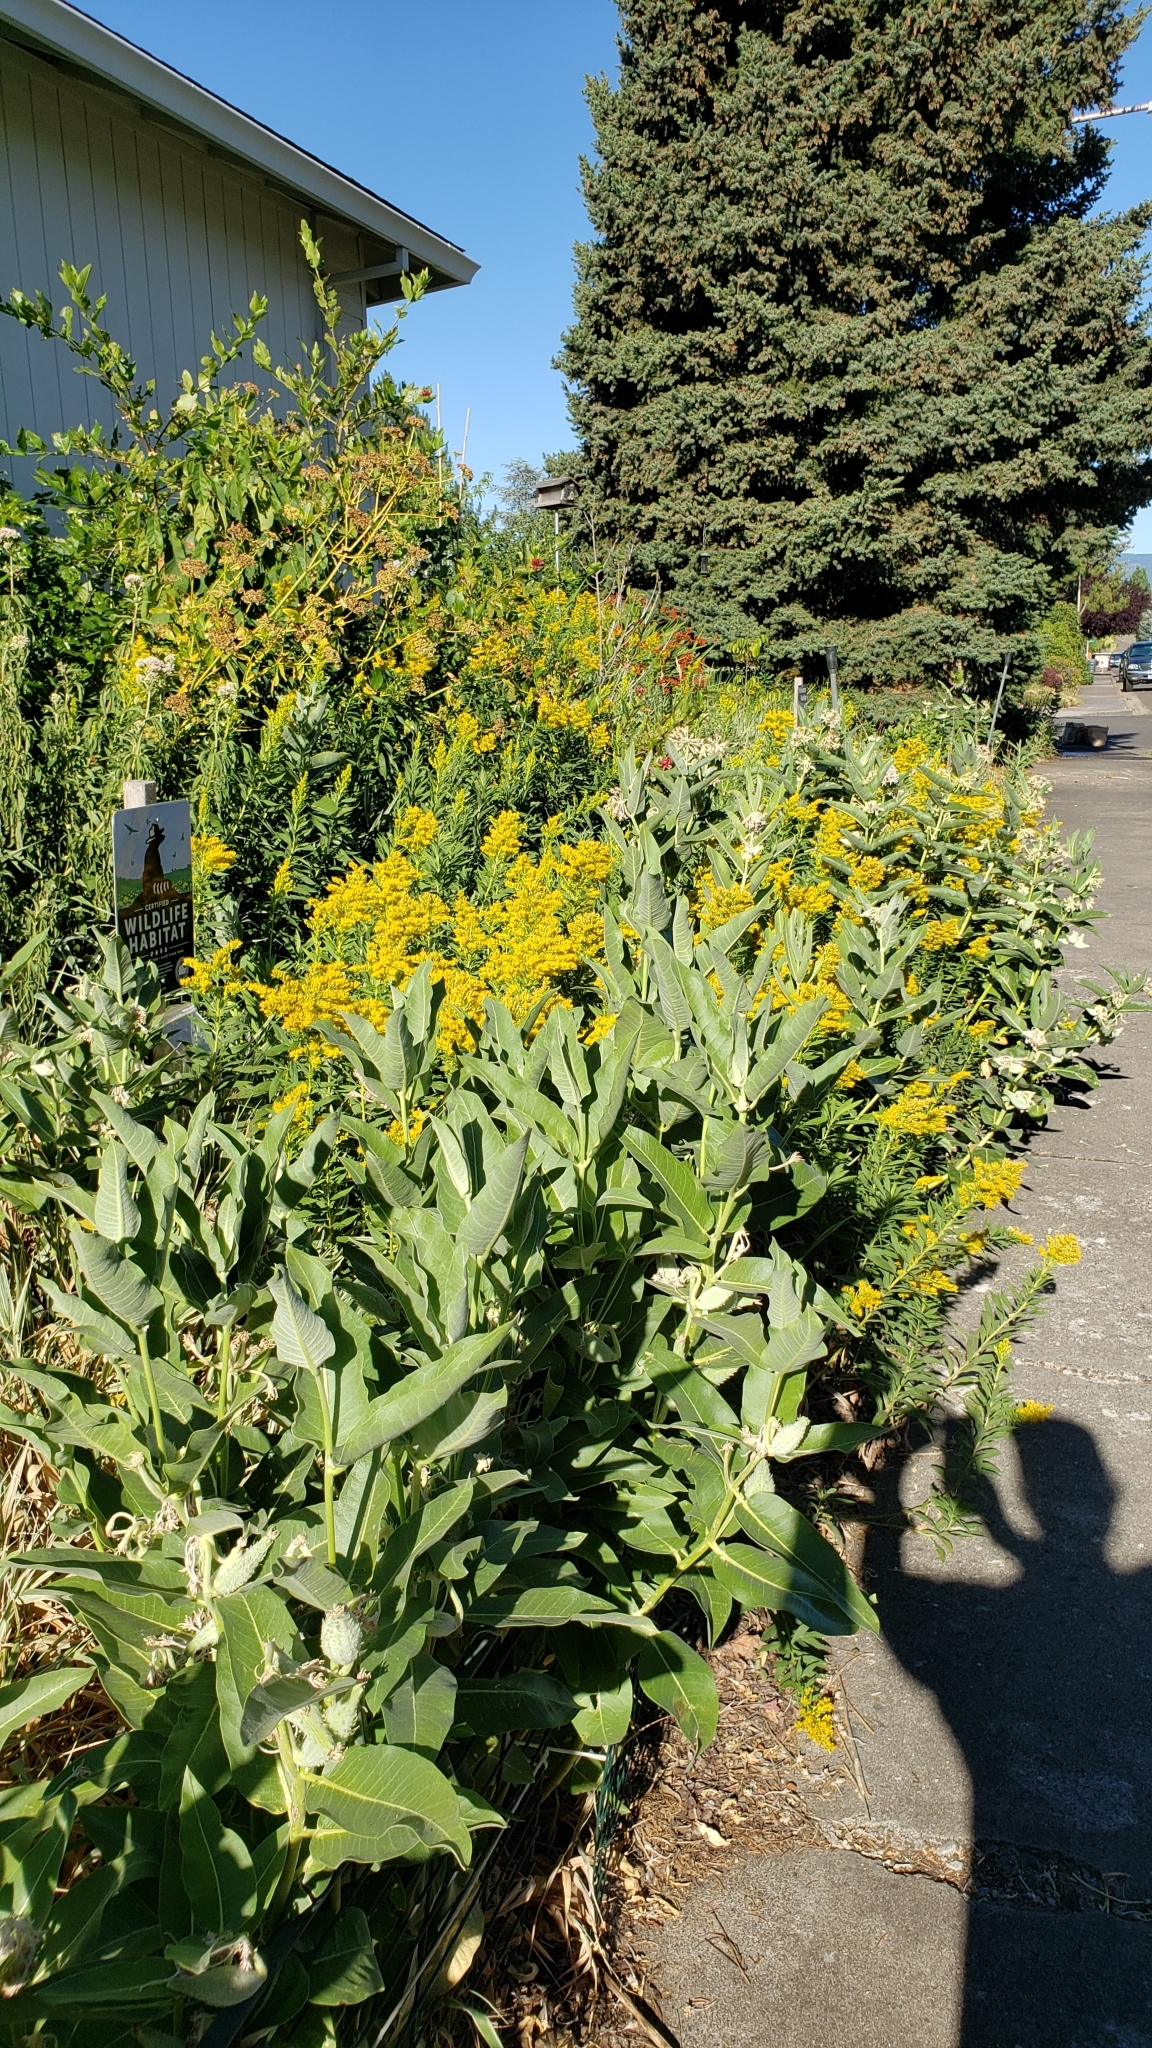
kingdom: Plantae
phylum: Tracheophyta
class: Magnoliopsida
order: Gentianales
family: Apocynaceae
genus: Asclepias
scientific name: Asclepias speciosa
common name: Showy milkweed
